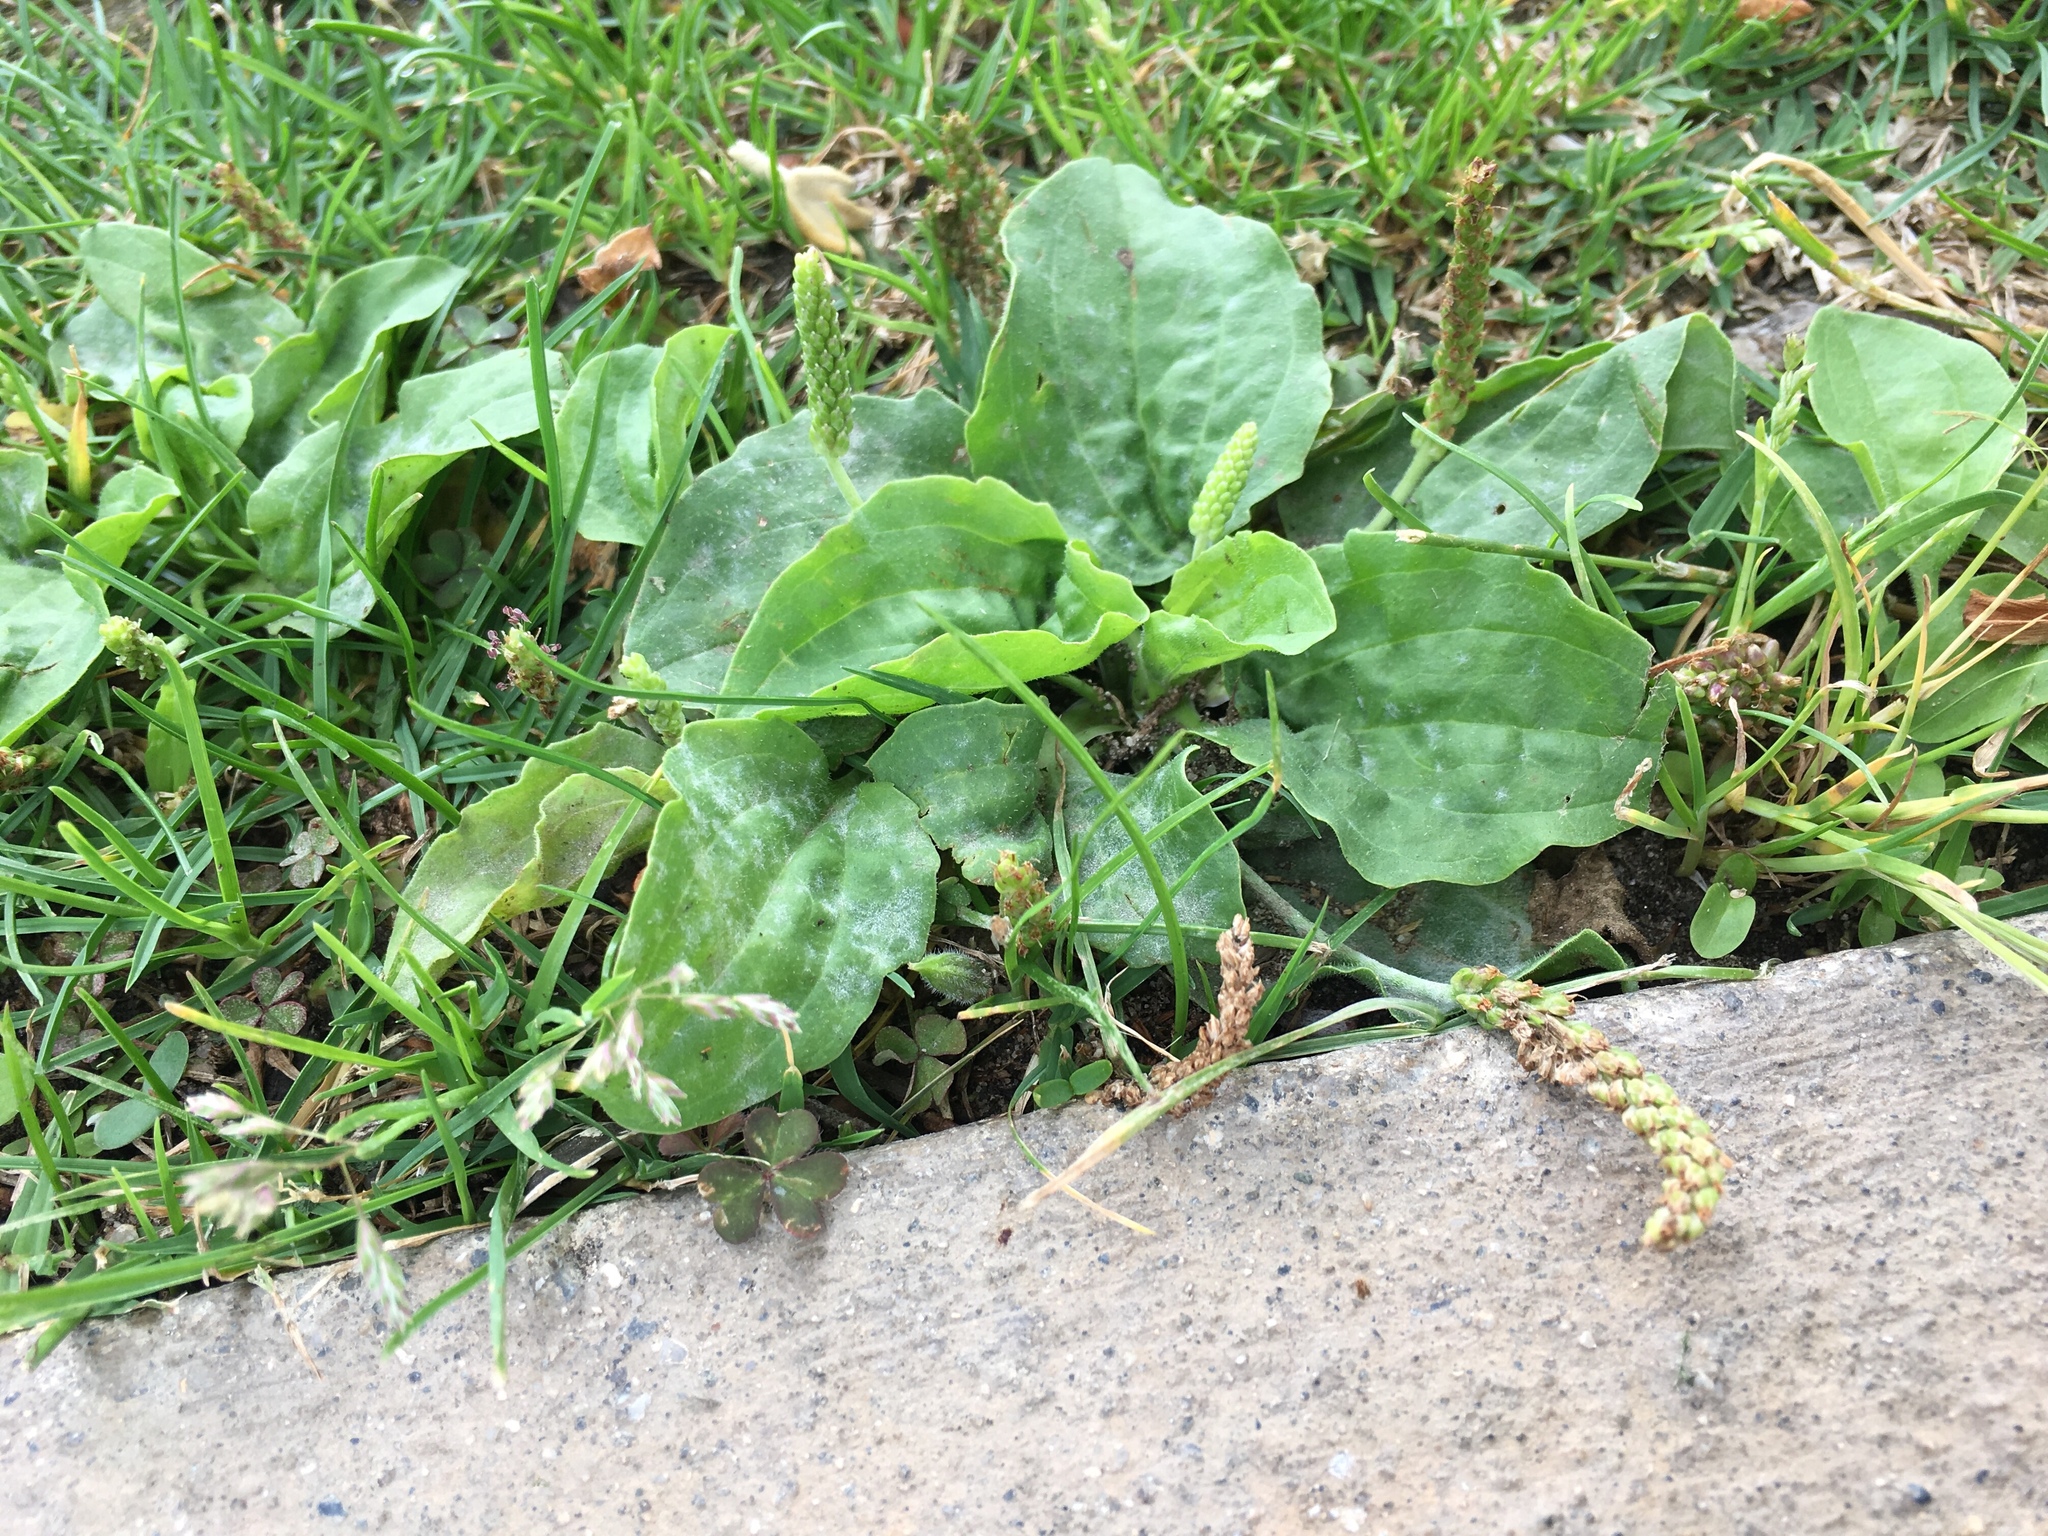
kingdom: Plantae
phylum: Tracheophyta
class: Magnoliopsida
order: Lamiales
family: Plantaginaceae
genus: Plantago
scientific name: Plantago major
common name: Common plantain
